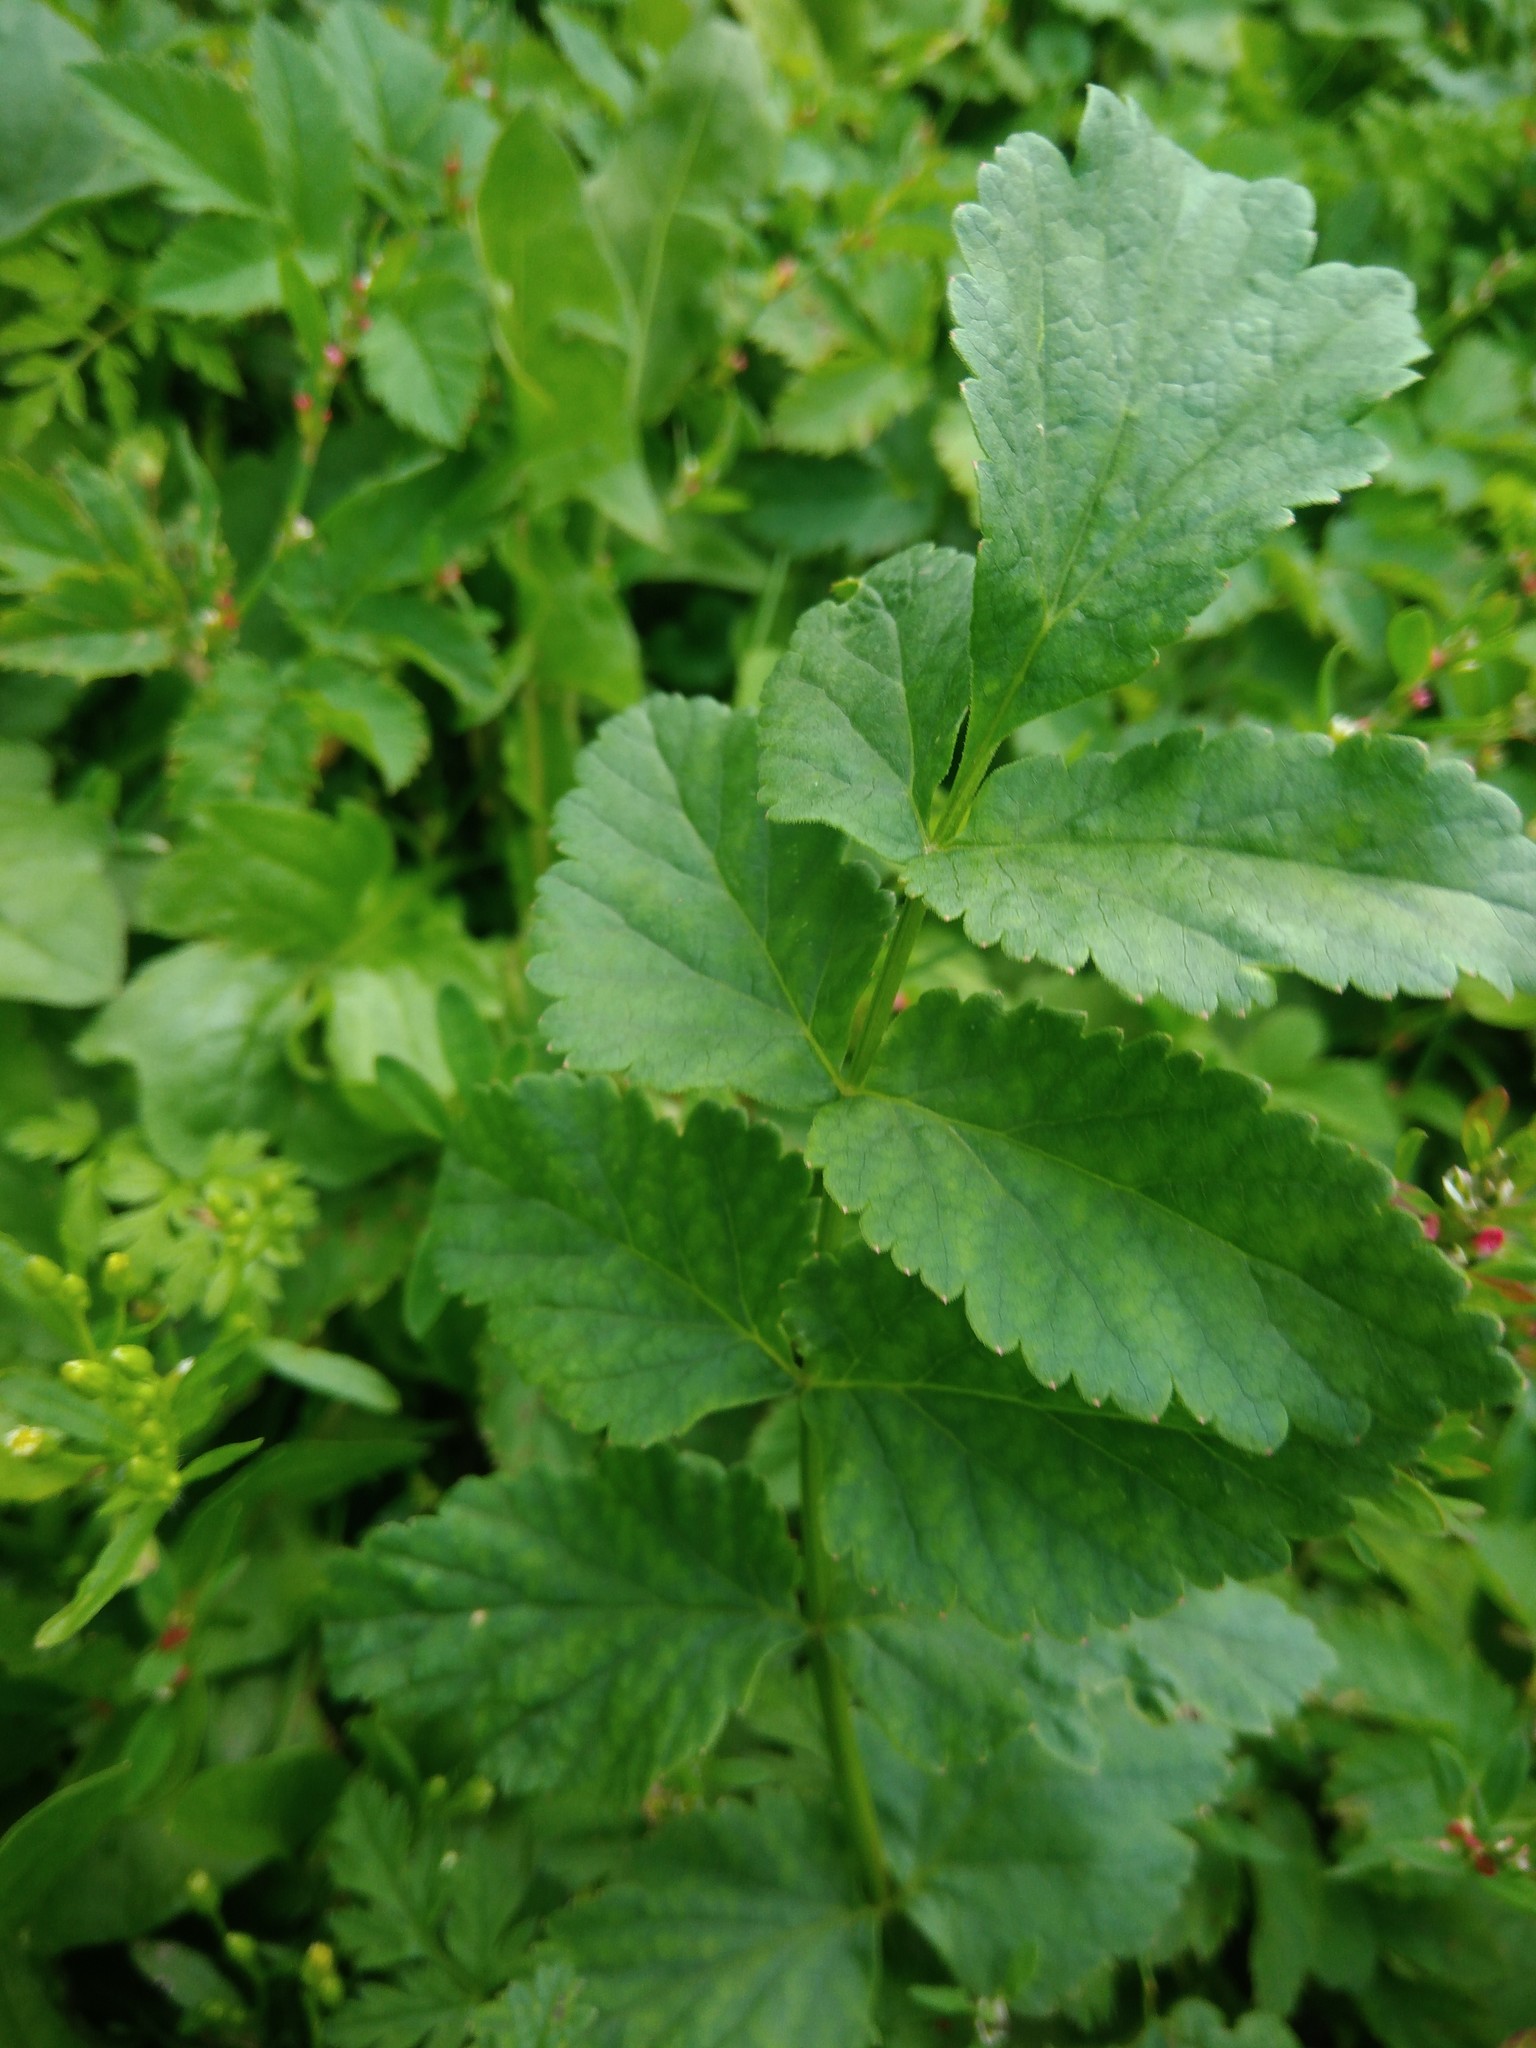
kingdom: Plantae
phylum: Tracheophyta
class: Magnoliopsida
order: Apiales
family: Apiaceae
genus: Pastinaca
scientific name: Pastinaca sativa
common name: Wild parsnip
